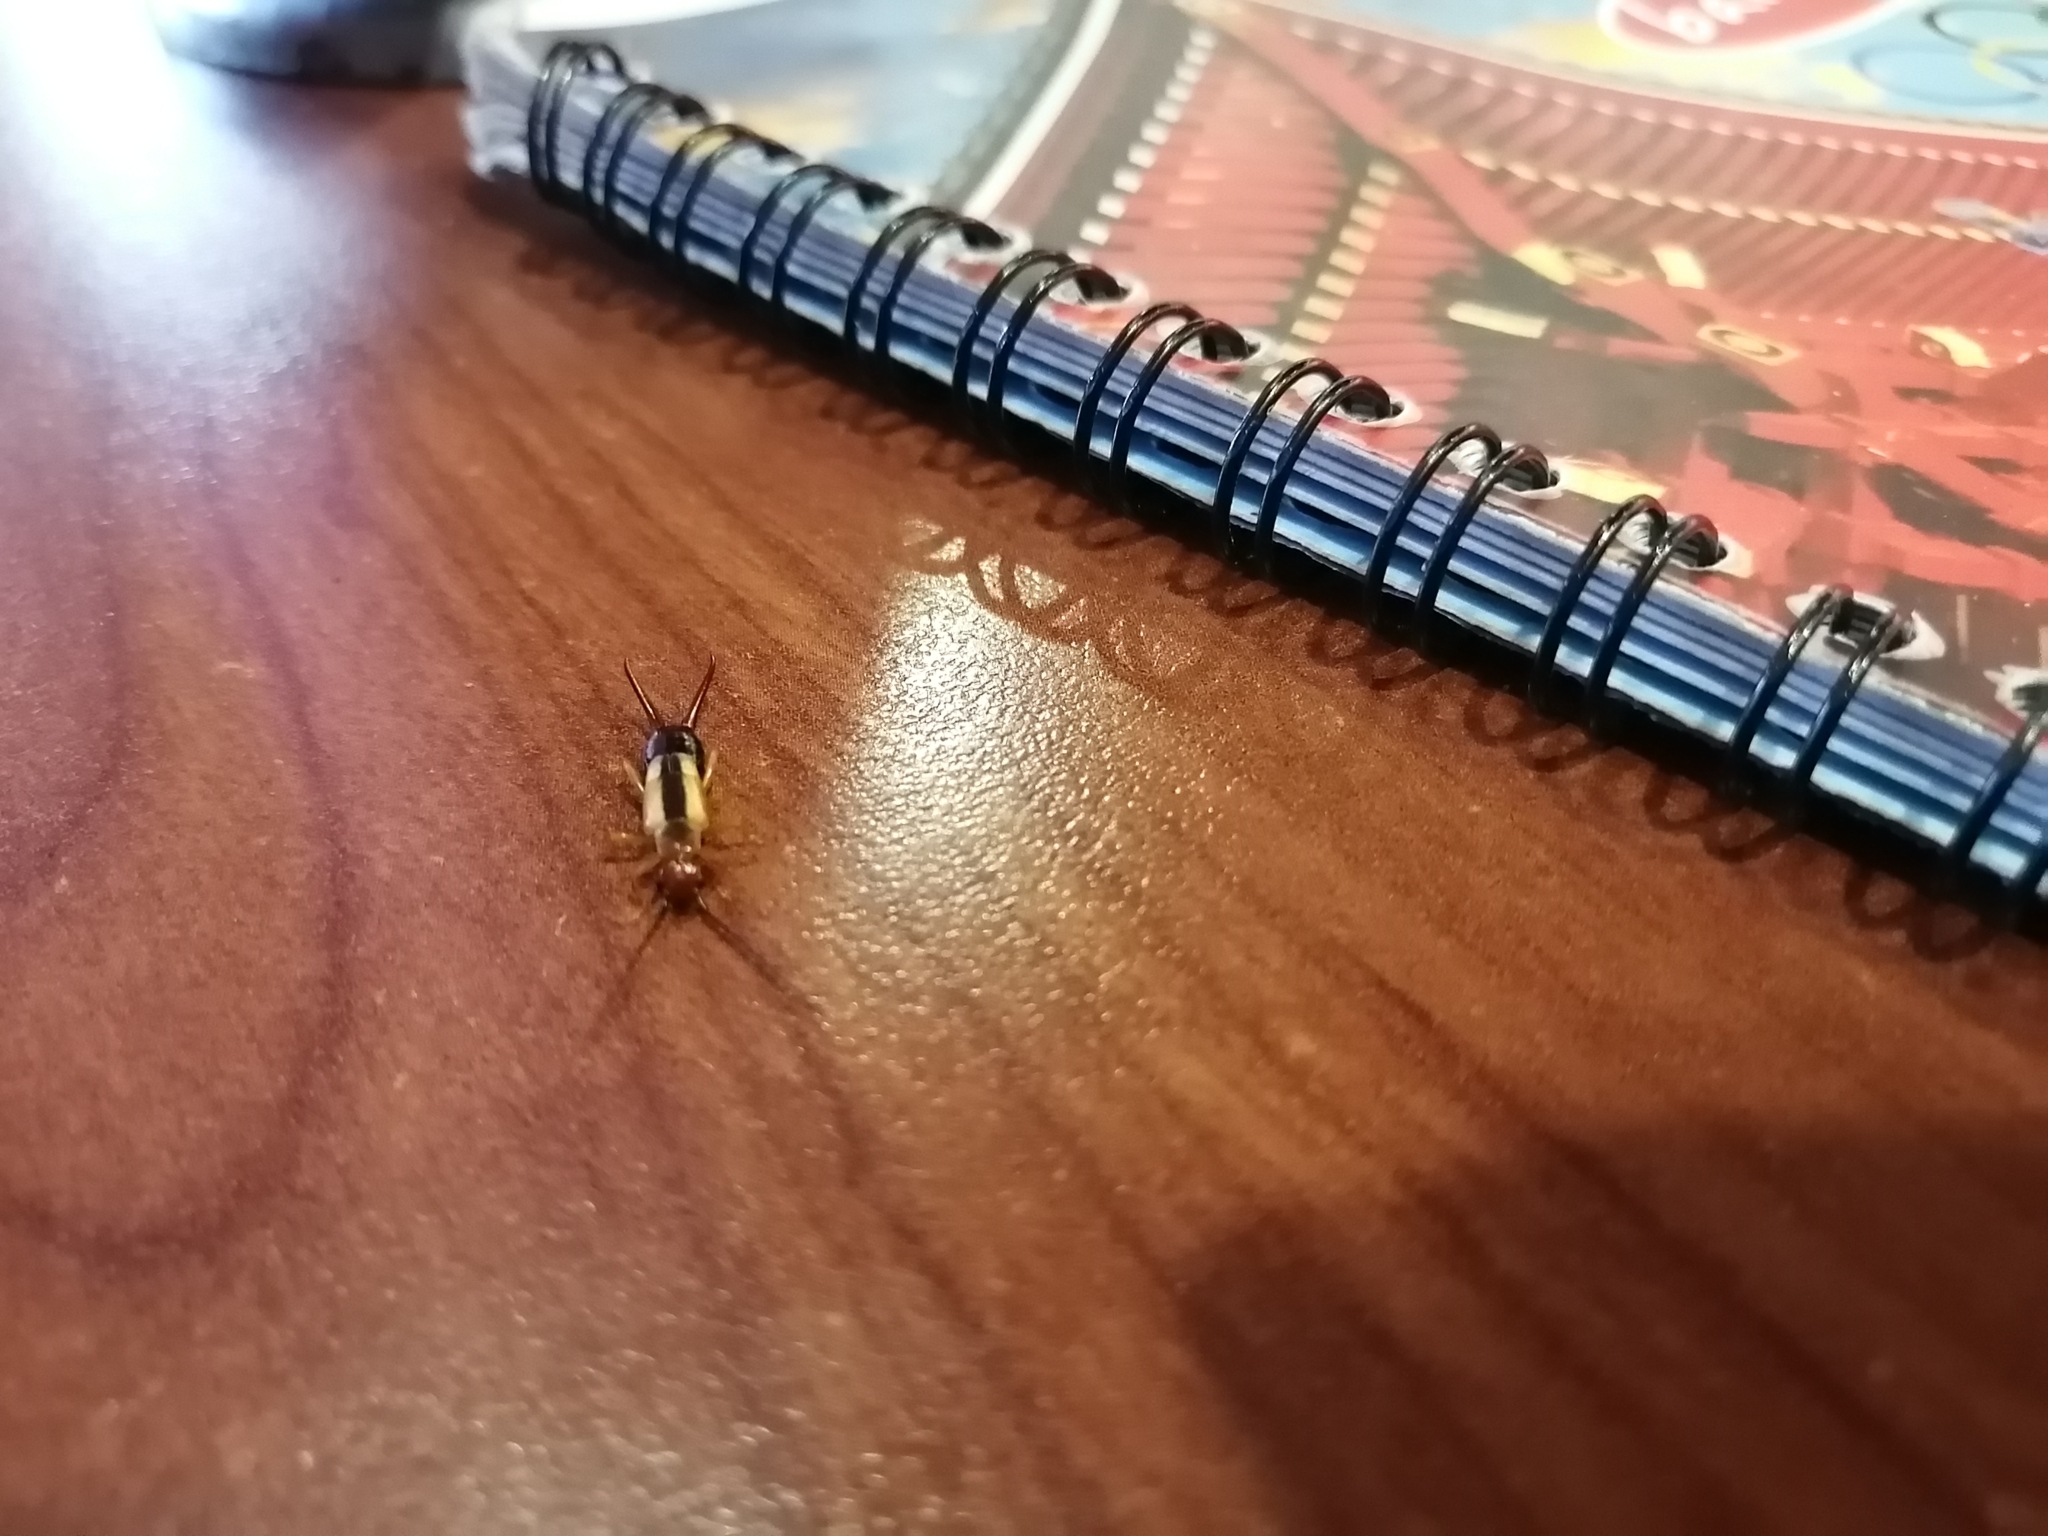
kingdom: Animalia
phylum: Arthropoda
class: Insecta
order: Dermaptera
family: Forficulidae
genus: Doru
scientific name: Doru taeniatum
